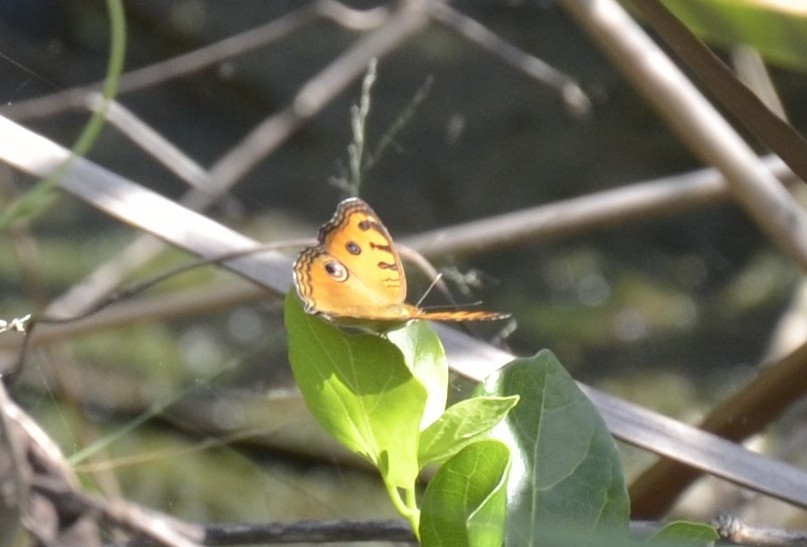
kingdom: Animalia
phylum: Arthropoda
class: Insecta
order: Lepidoptera
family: Nymphalidae
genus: Junonia
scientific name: Junonia almana
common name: Peacock pansy
